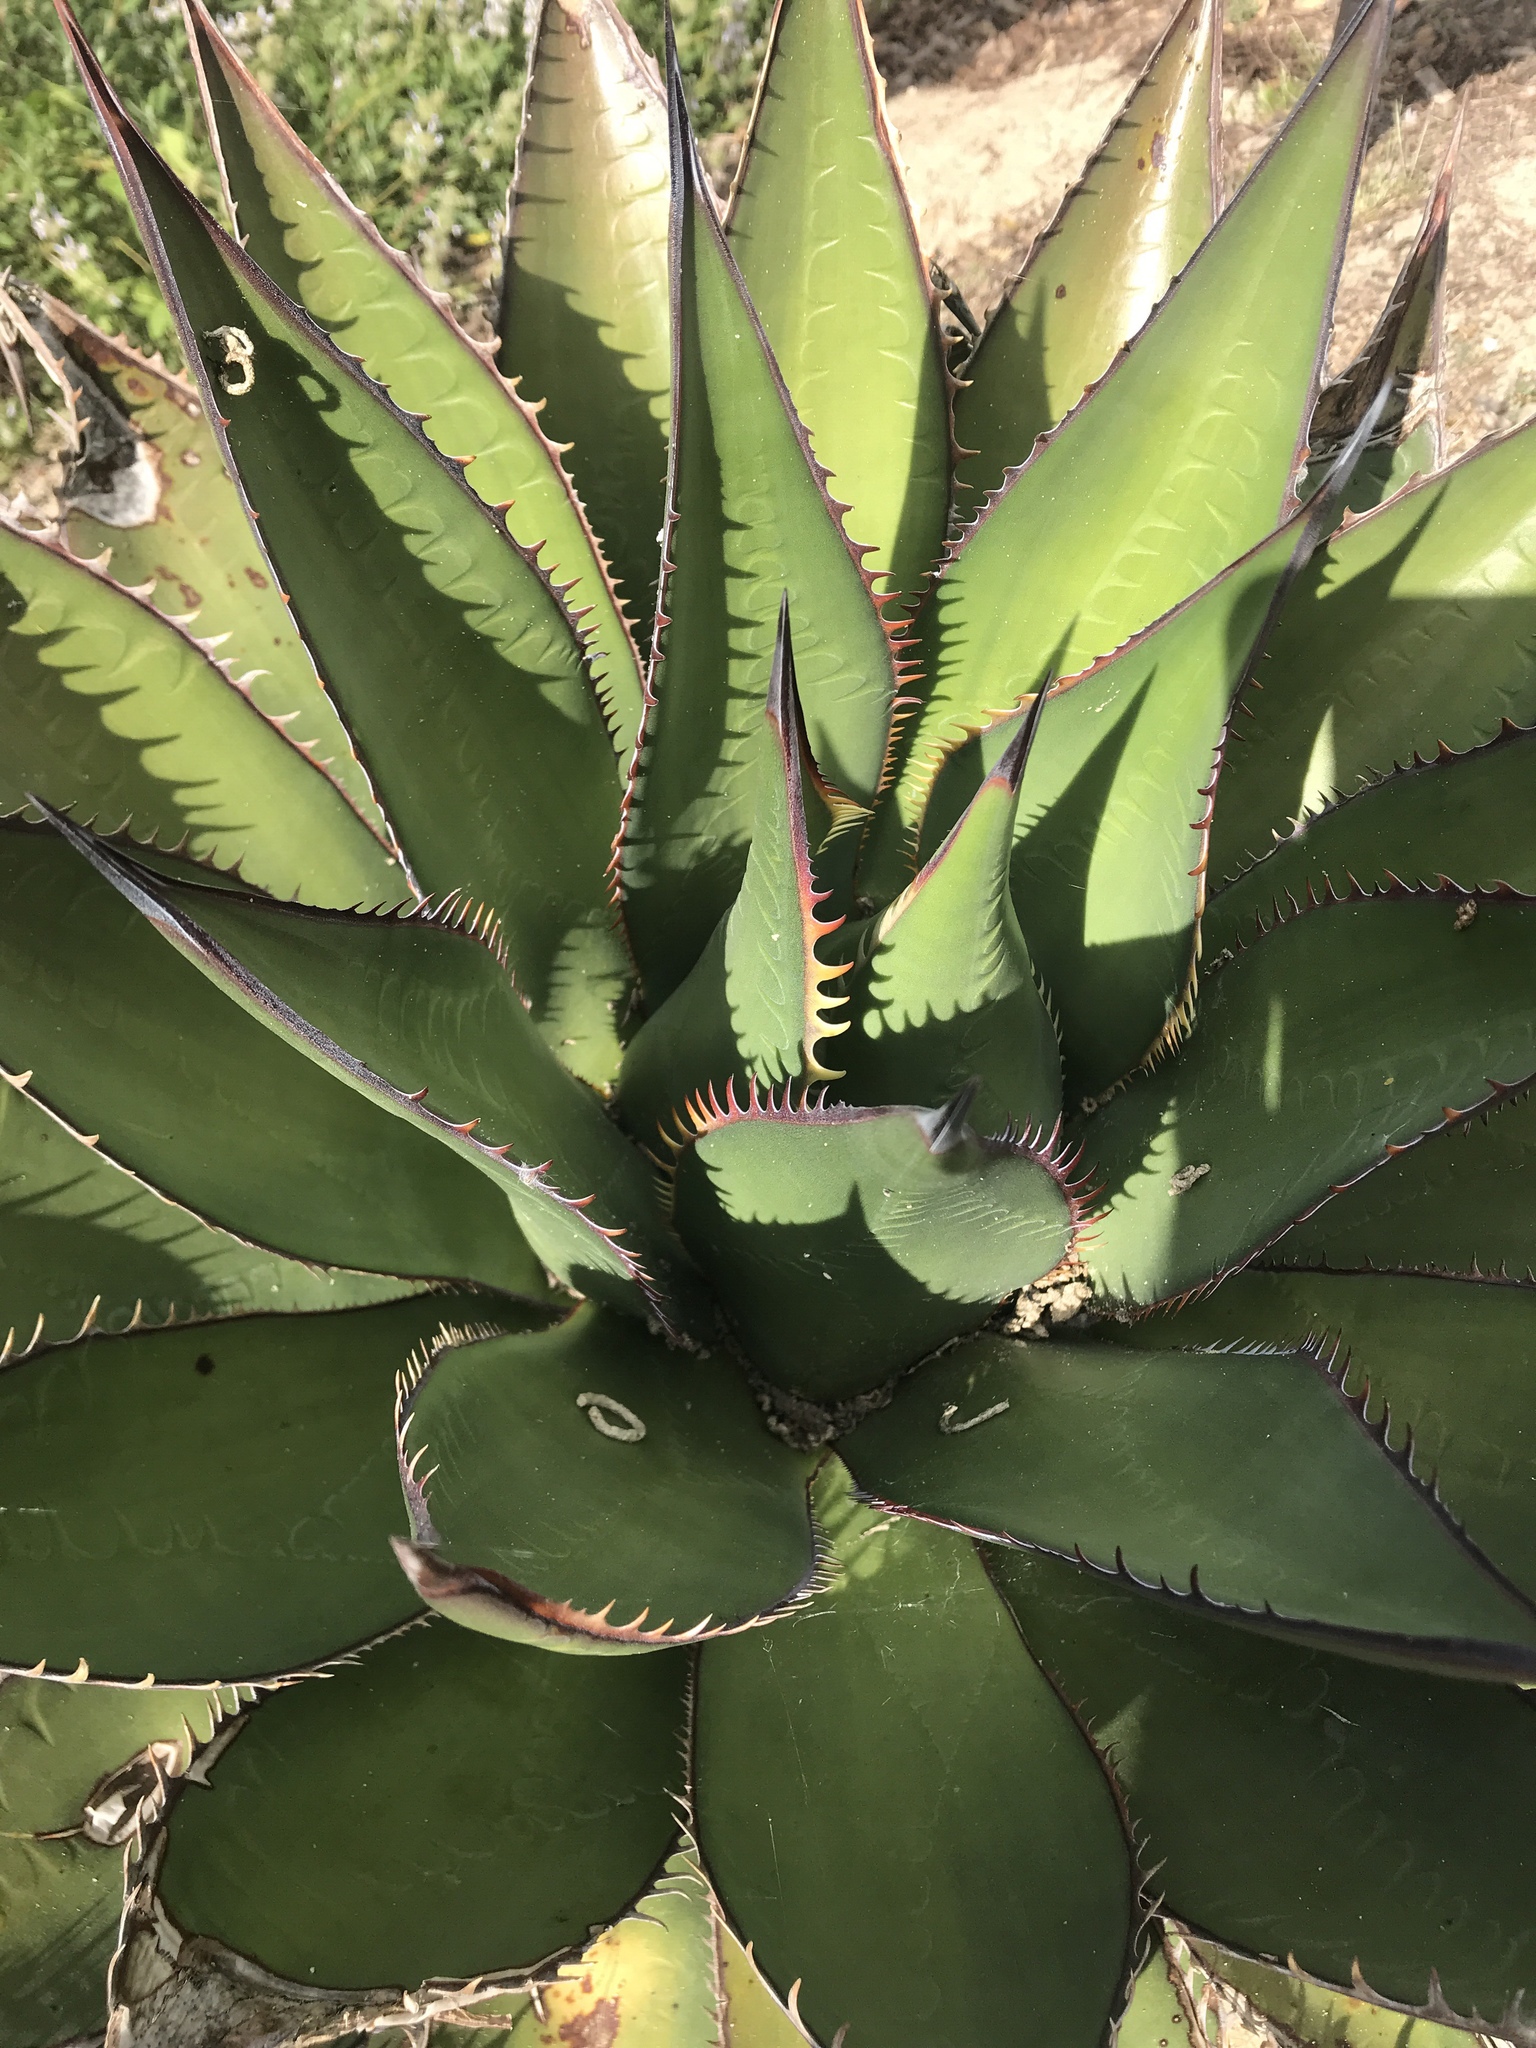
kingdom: Plantae
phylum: Tracheophyta
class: Liliopsida
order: Asparagales
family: Asparagaceae
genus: Agave
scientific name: Agave shawii
